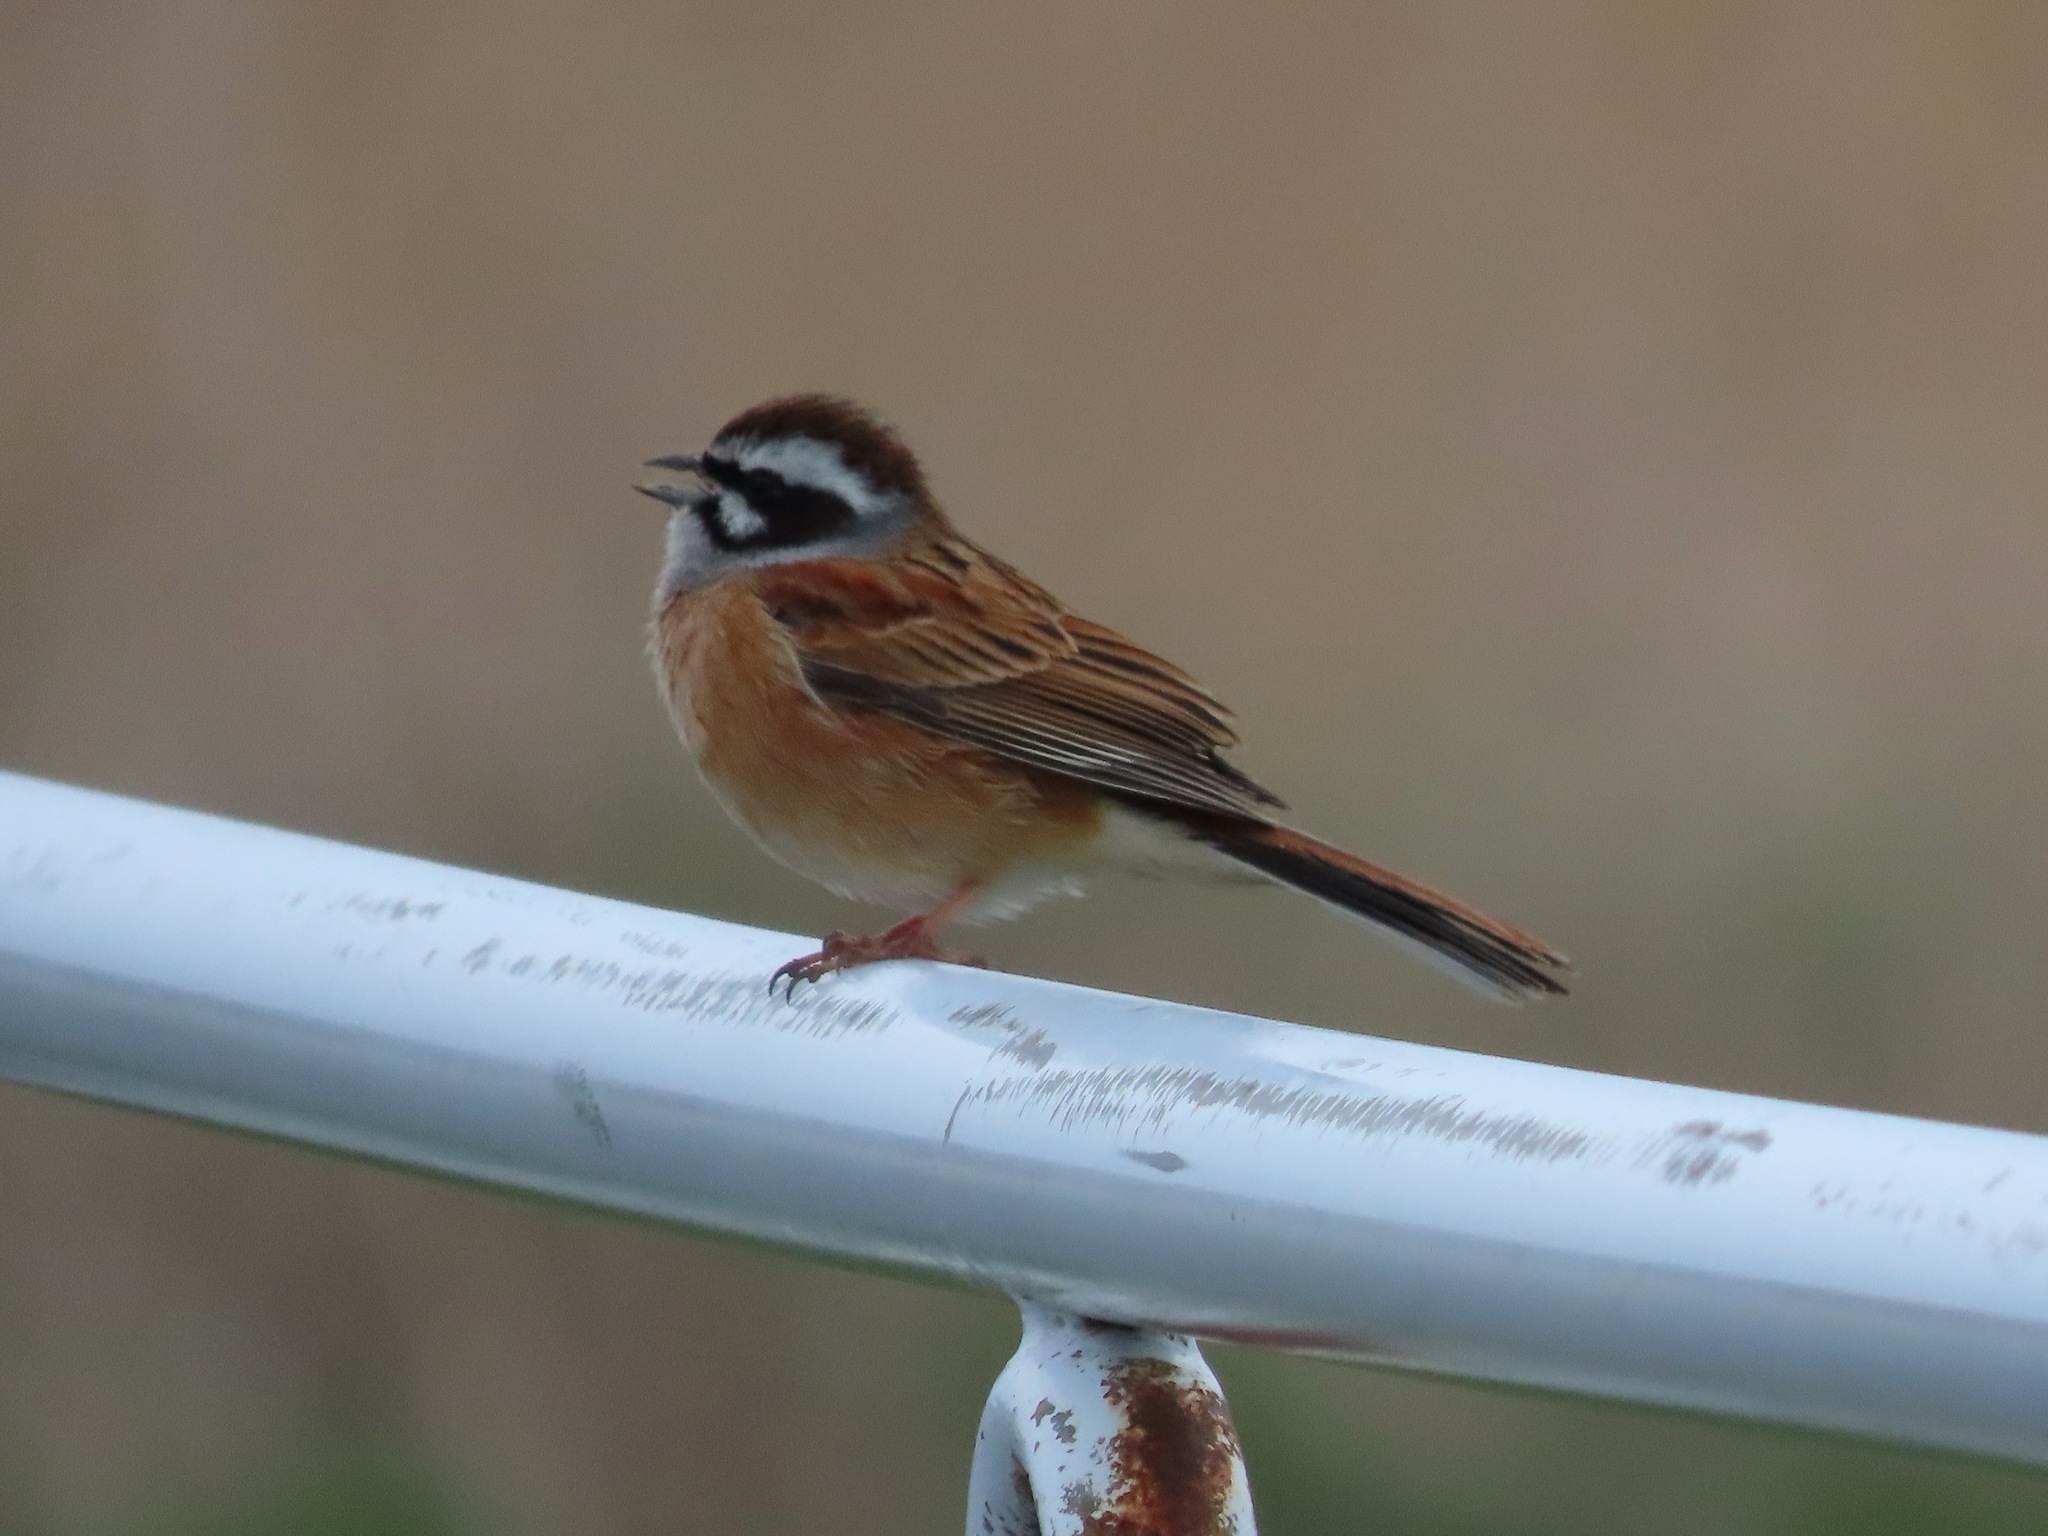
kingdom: Animalia
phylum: Chordata
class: Aves
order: Passeriformes
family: Emberizidae
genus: Emberiza
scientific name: Emberiza cioides
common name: Meadow bunting
